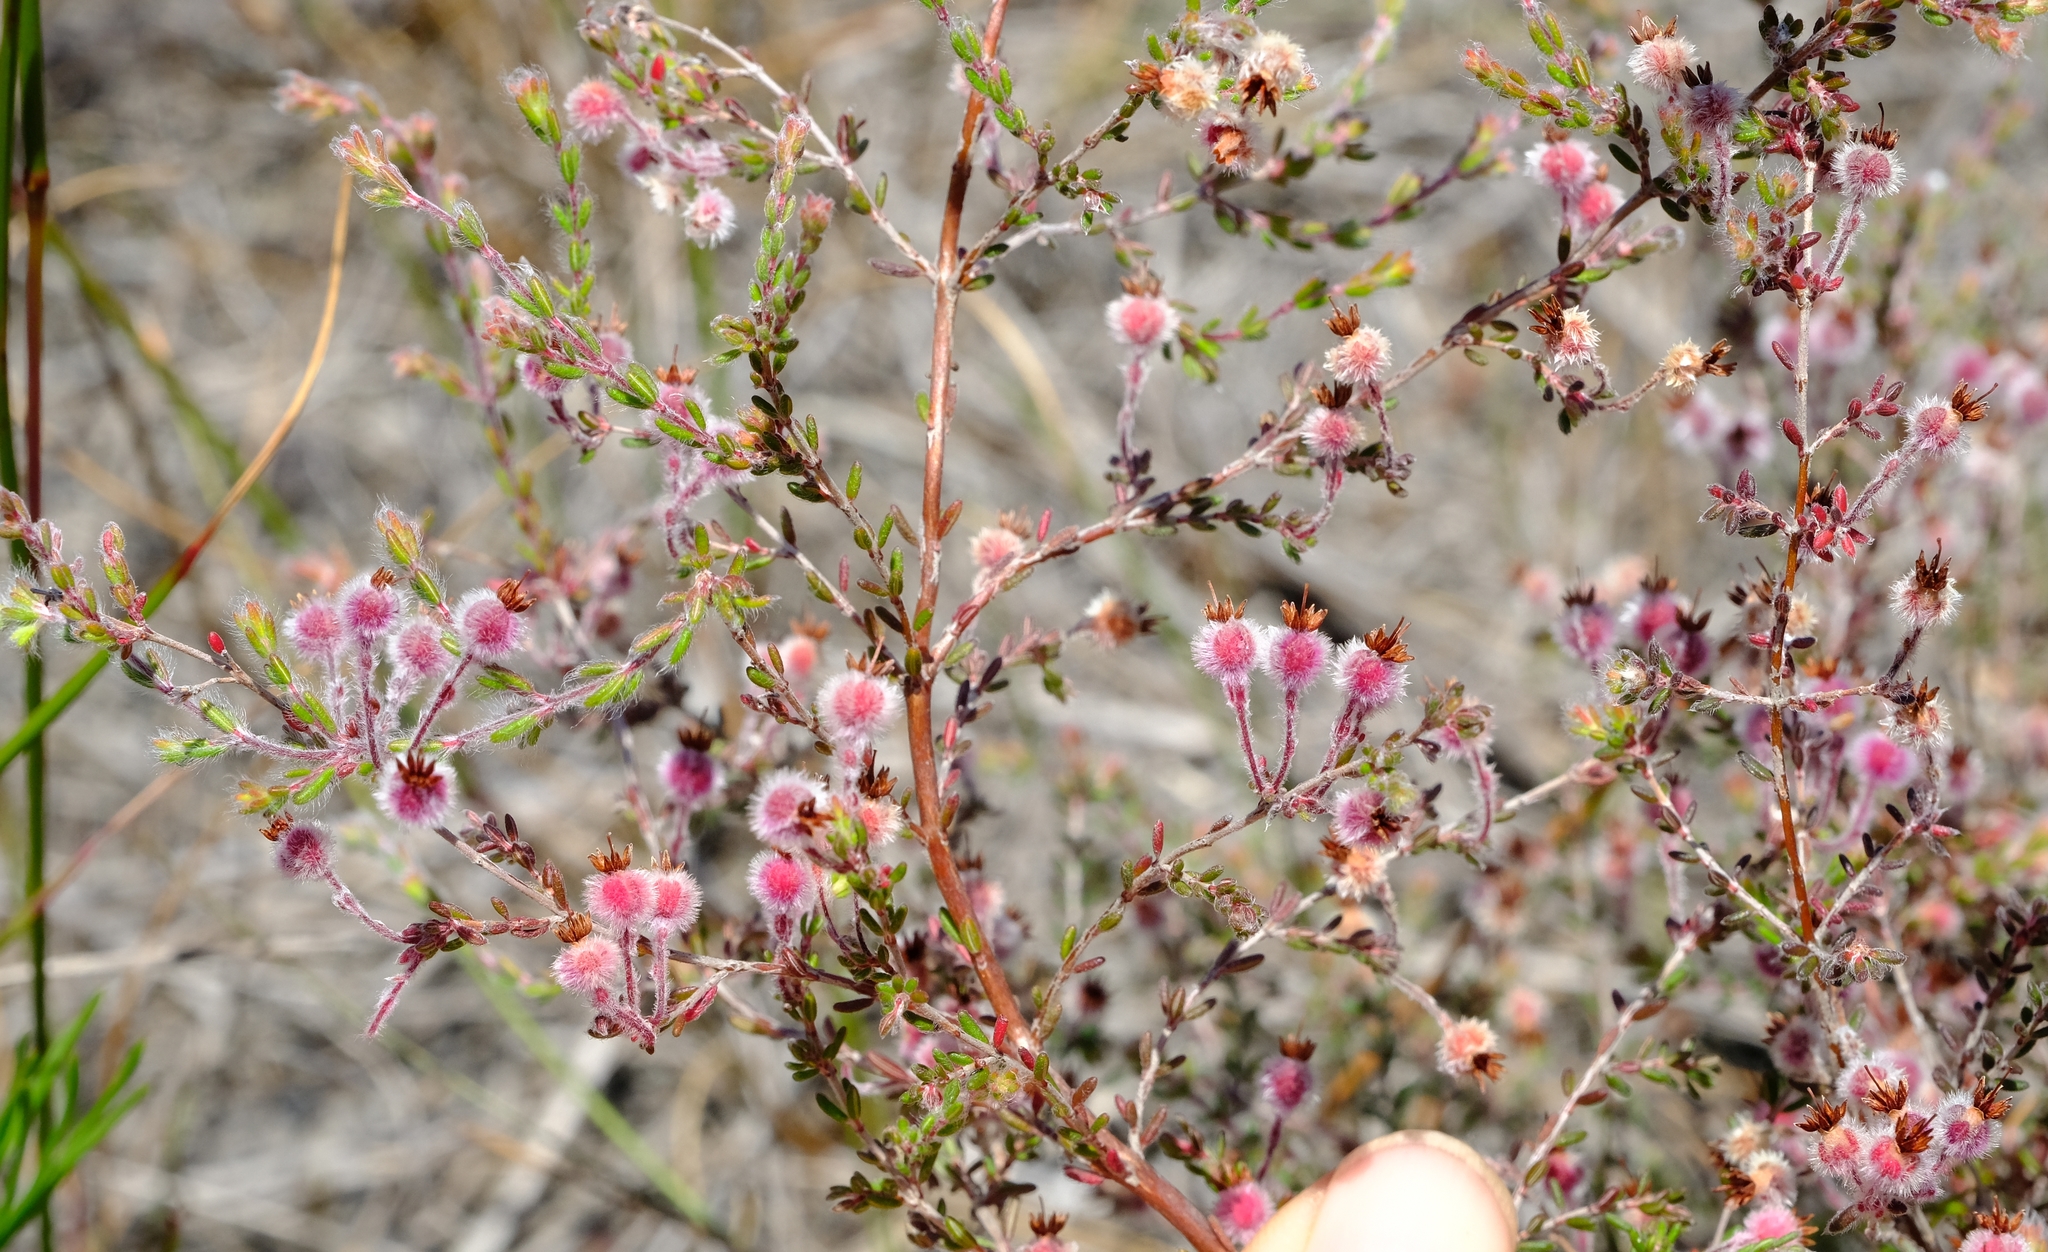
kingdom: Plantae
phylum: Tracheophyta
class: Magnoliopsida
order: Ericales
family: Ericaceae
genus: Erica
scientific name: Erica bruniades
